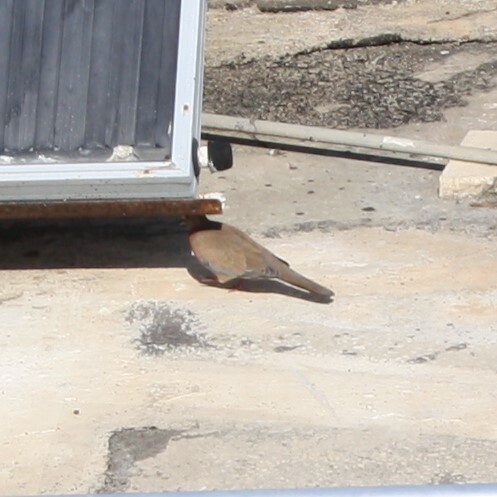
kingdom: Animalia
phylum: Chordata
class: Aves
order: Columbiformes
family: Columbidae
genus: Spilopelia
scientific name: Spilopelia senegalensis
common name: Laughing dove
